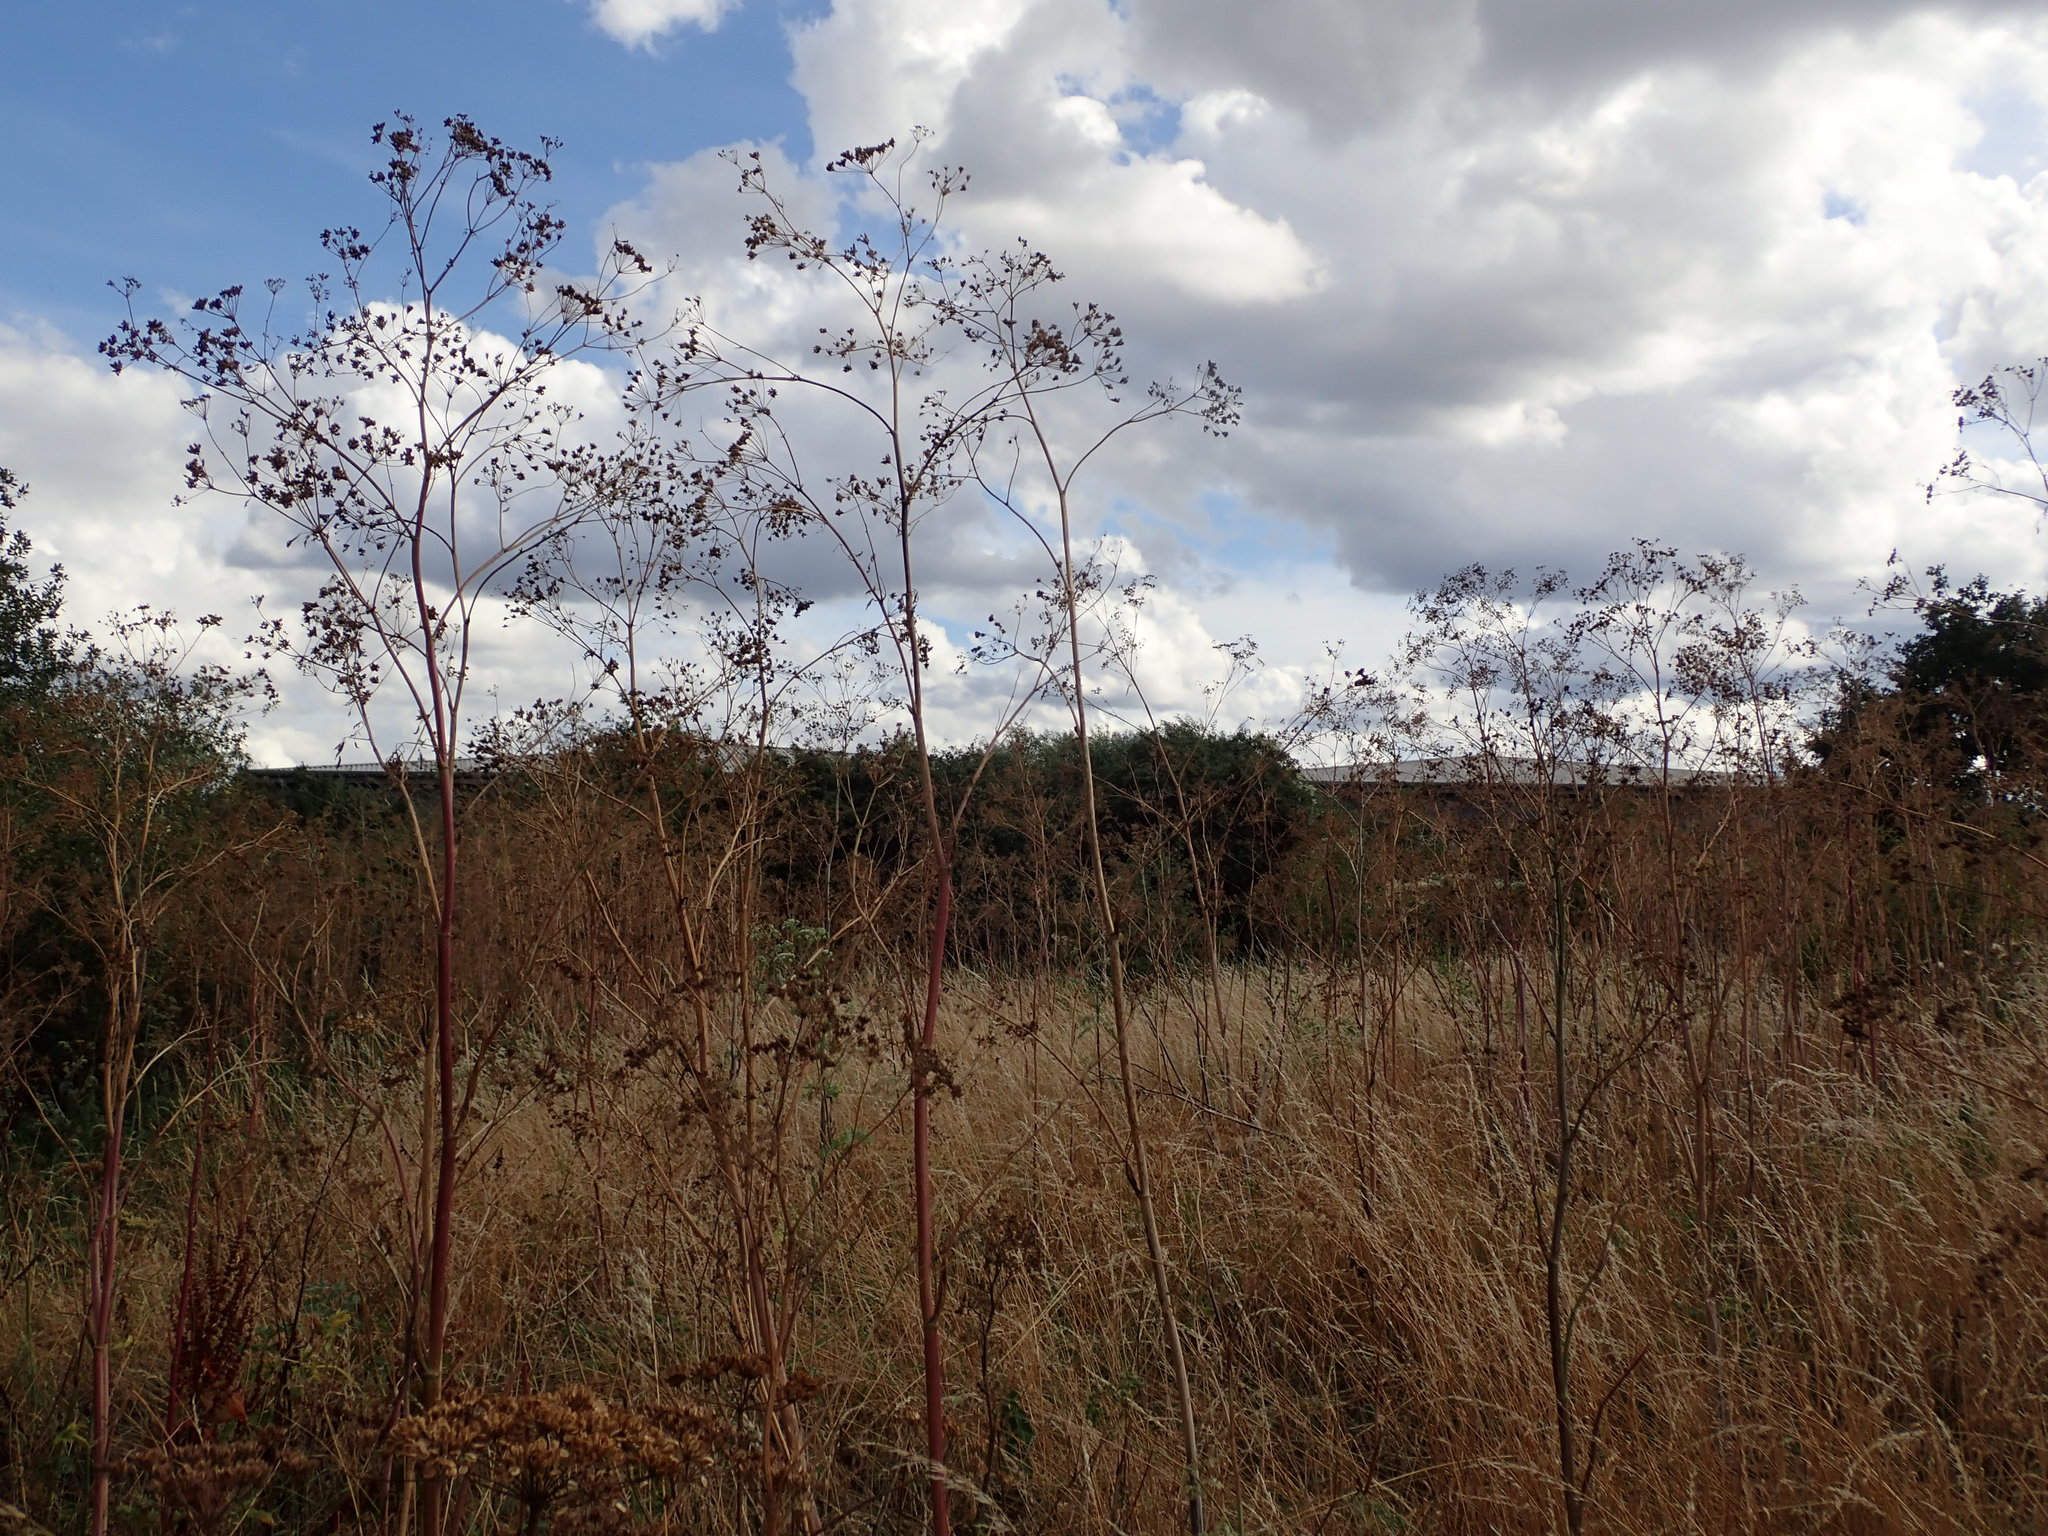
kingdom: Plantae
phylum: Tracheophyta
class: Magnoliopsida
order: Apiales
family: Apiaceae
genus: Conium
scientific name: Conium maculatum
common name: Hemlock
